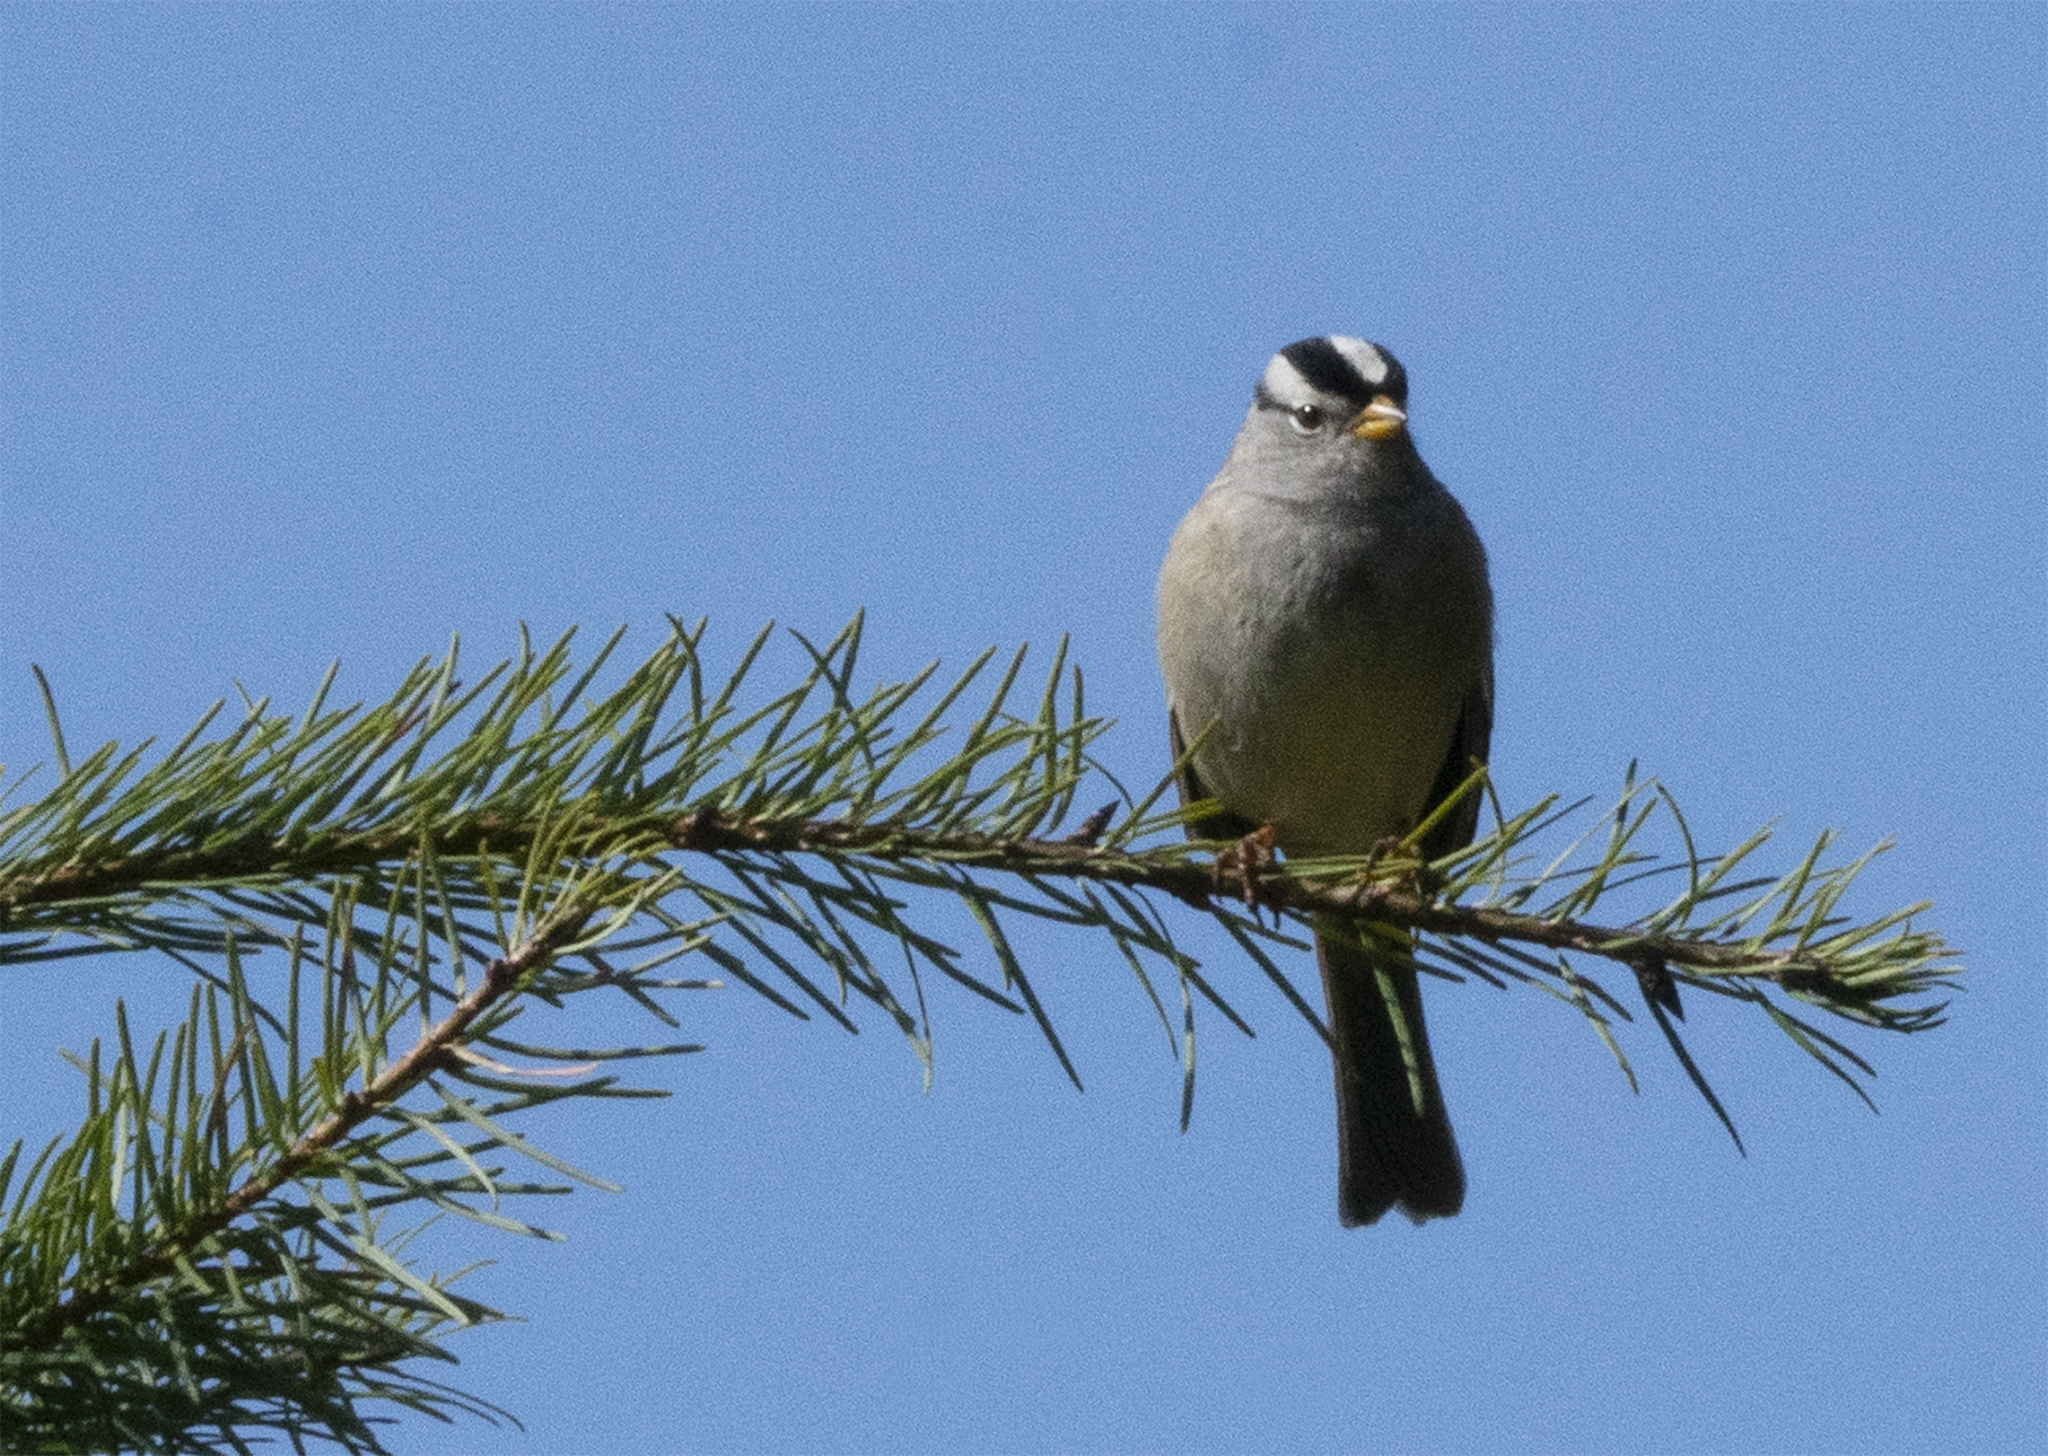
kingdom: Animalia
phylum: Chordata
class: Aves
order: Passeriformes
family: Passerellidae
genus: Zonotrichia
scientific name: Zonotrichia leucophrys
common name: White-crowned sparrow
